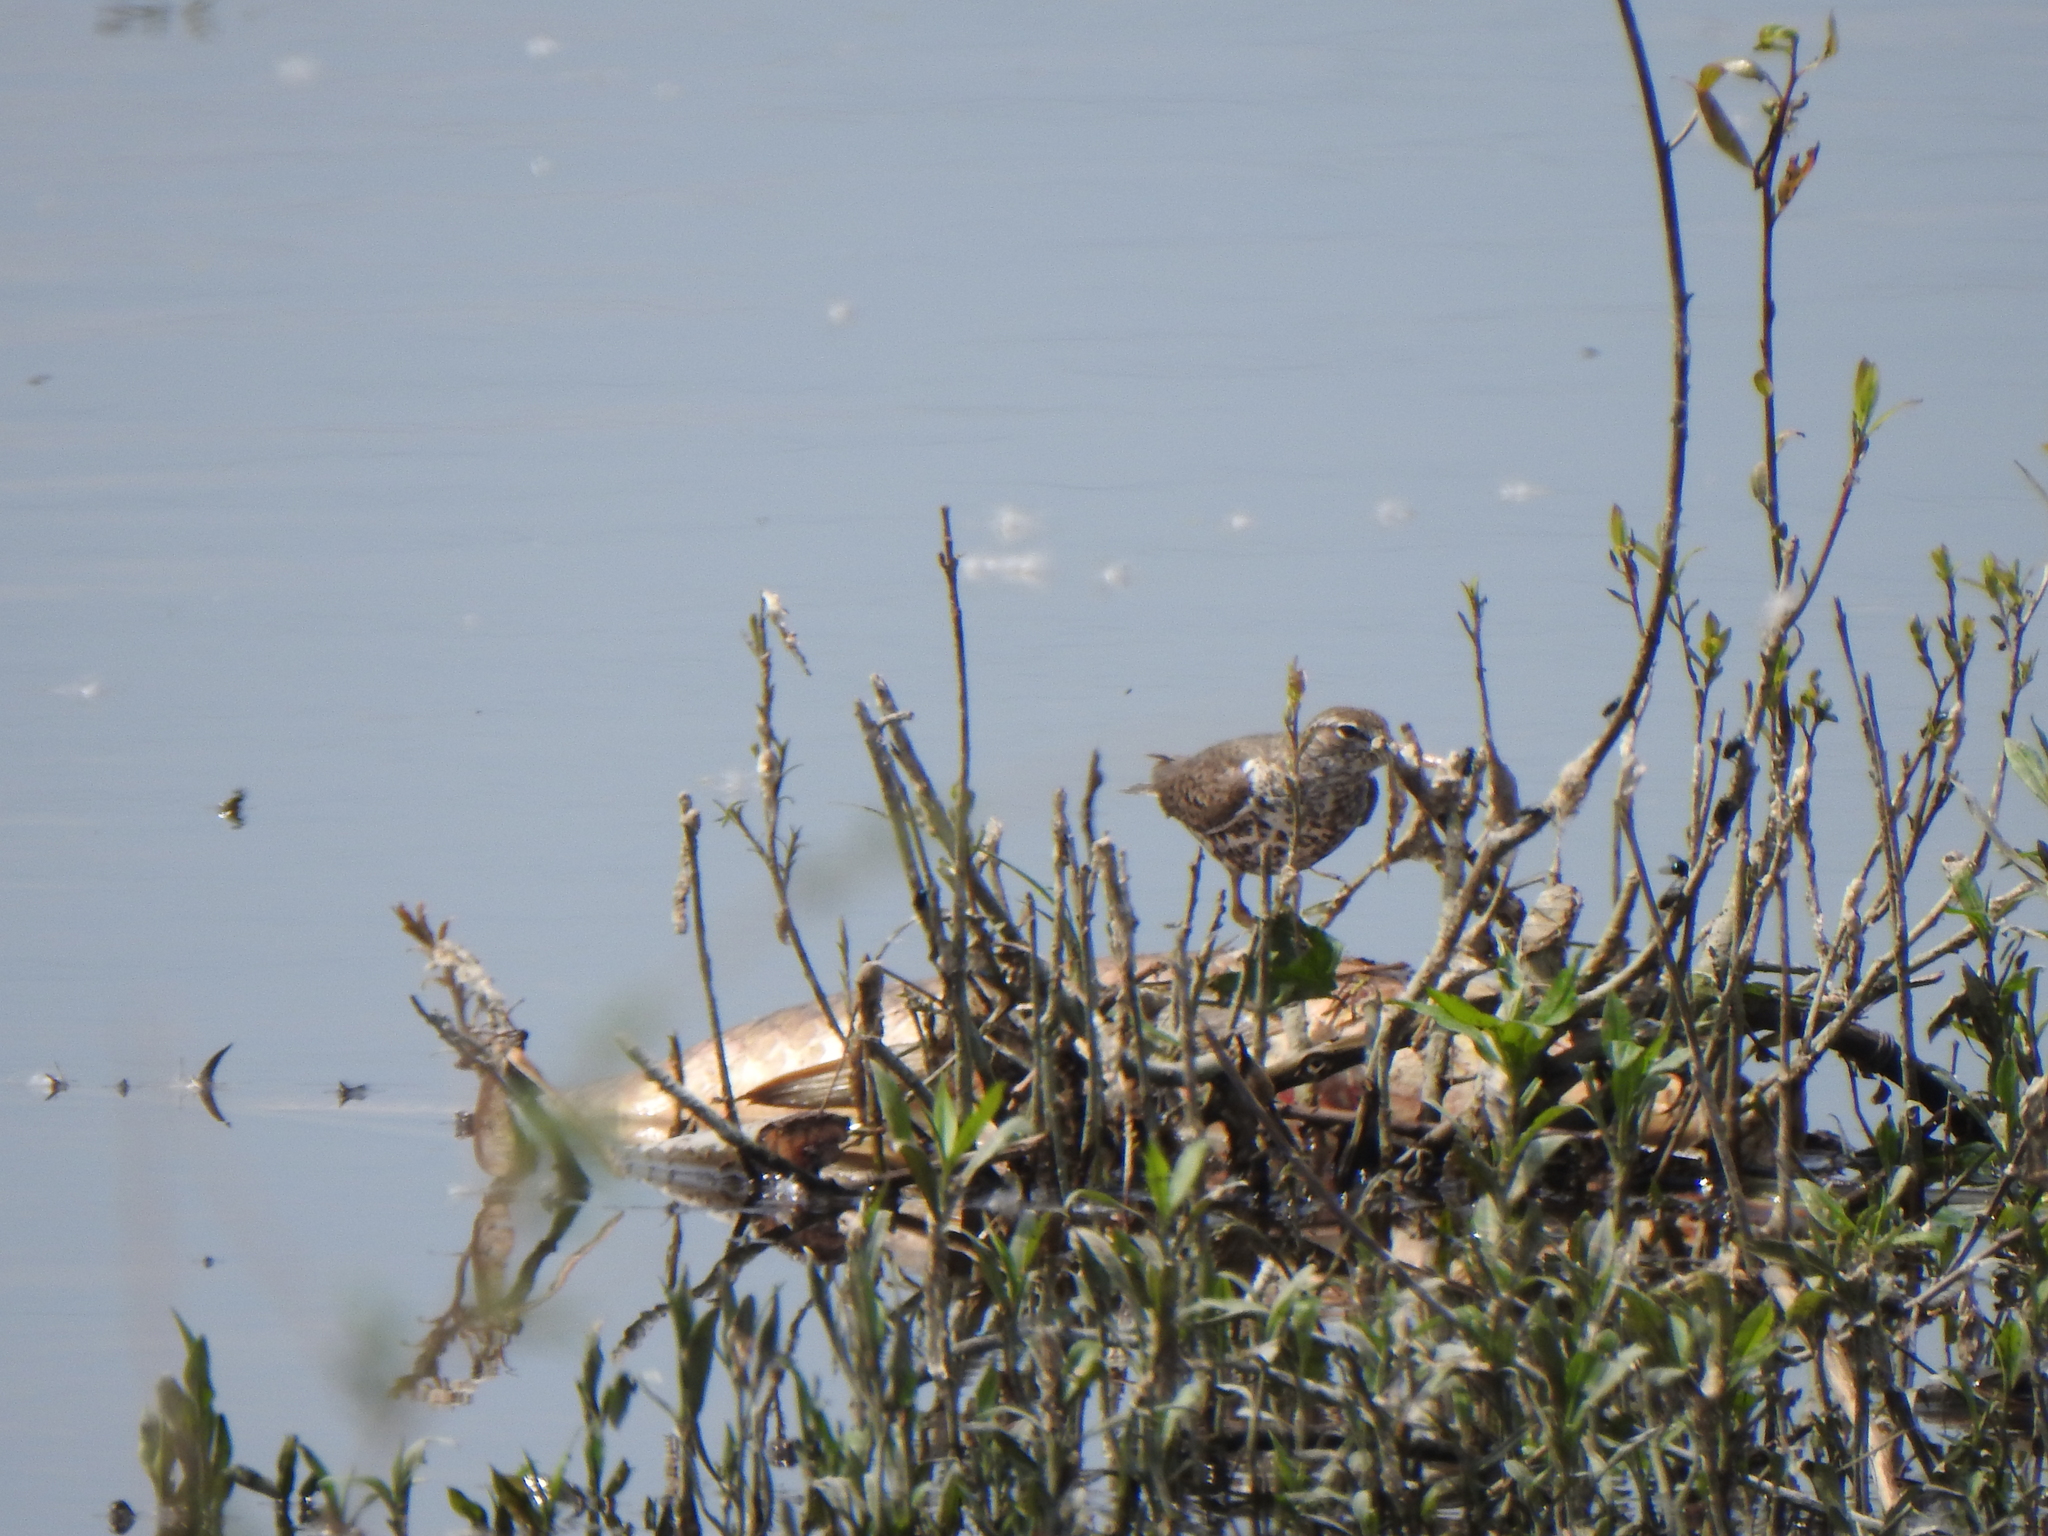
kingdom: Animalia
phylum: Chordata
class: Aves
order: Charadriiformes
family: Scolopacidae
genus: Actitis
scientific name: Actitis macularius
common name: Spotted sandpiper
